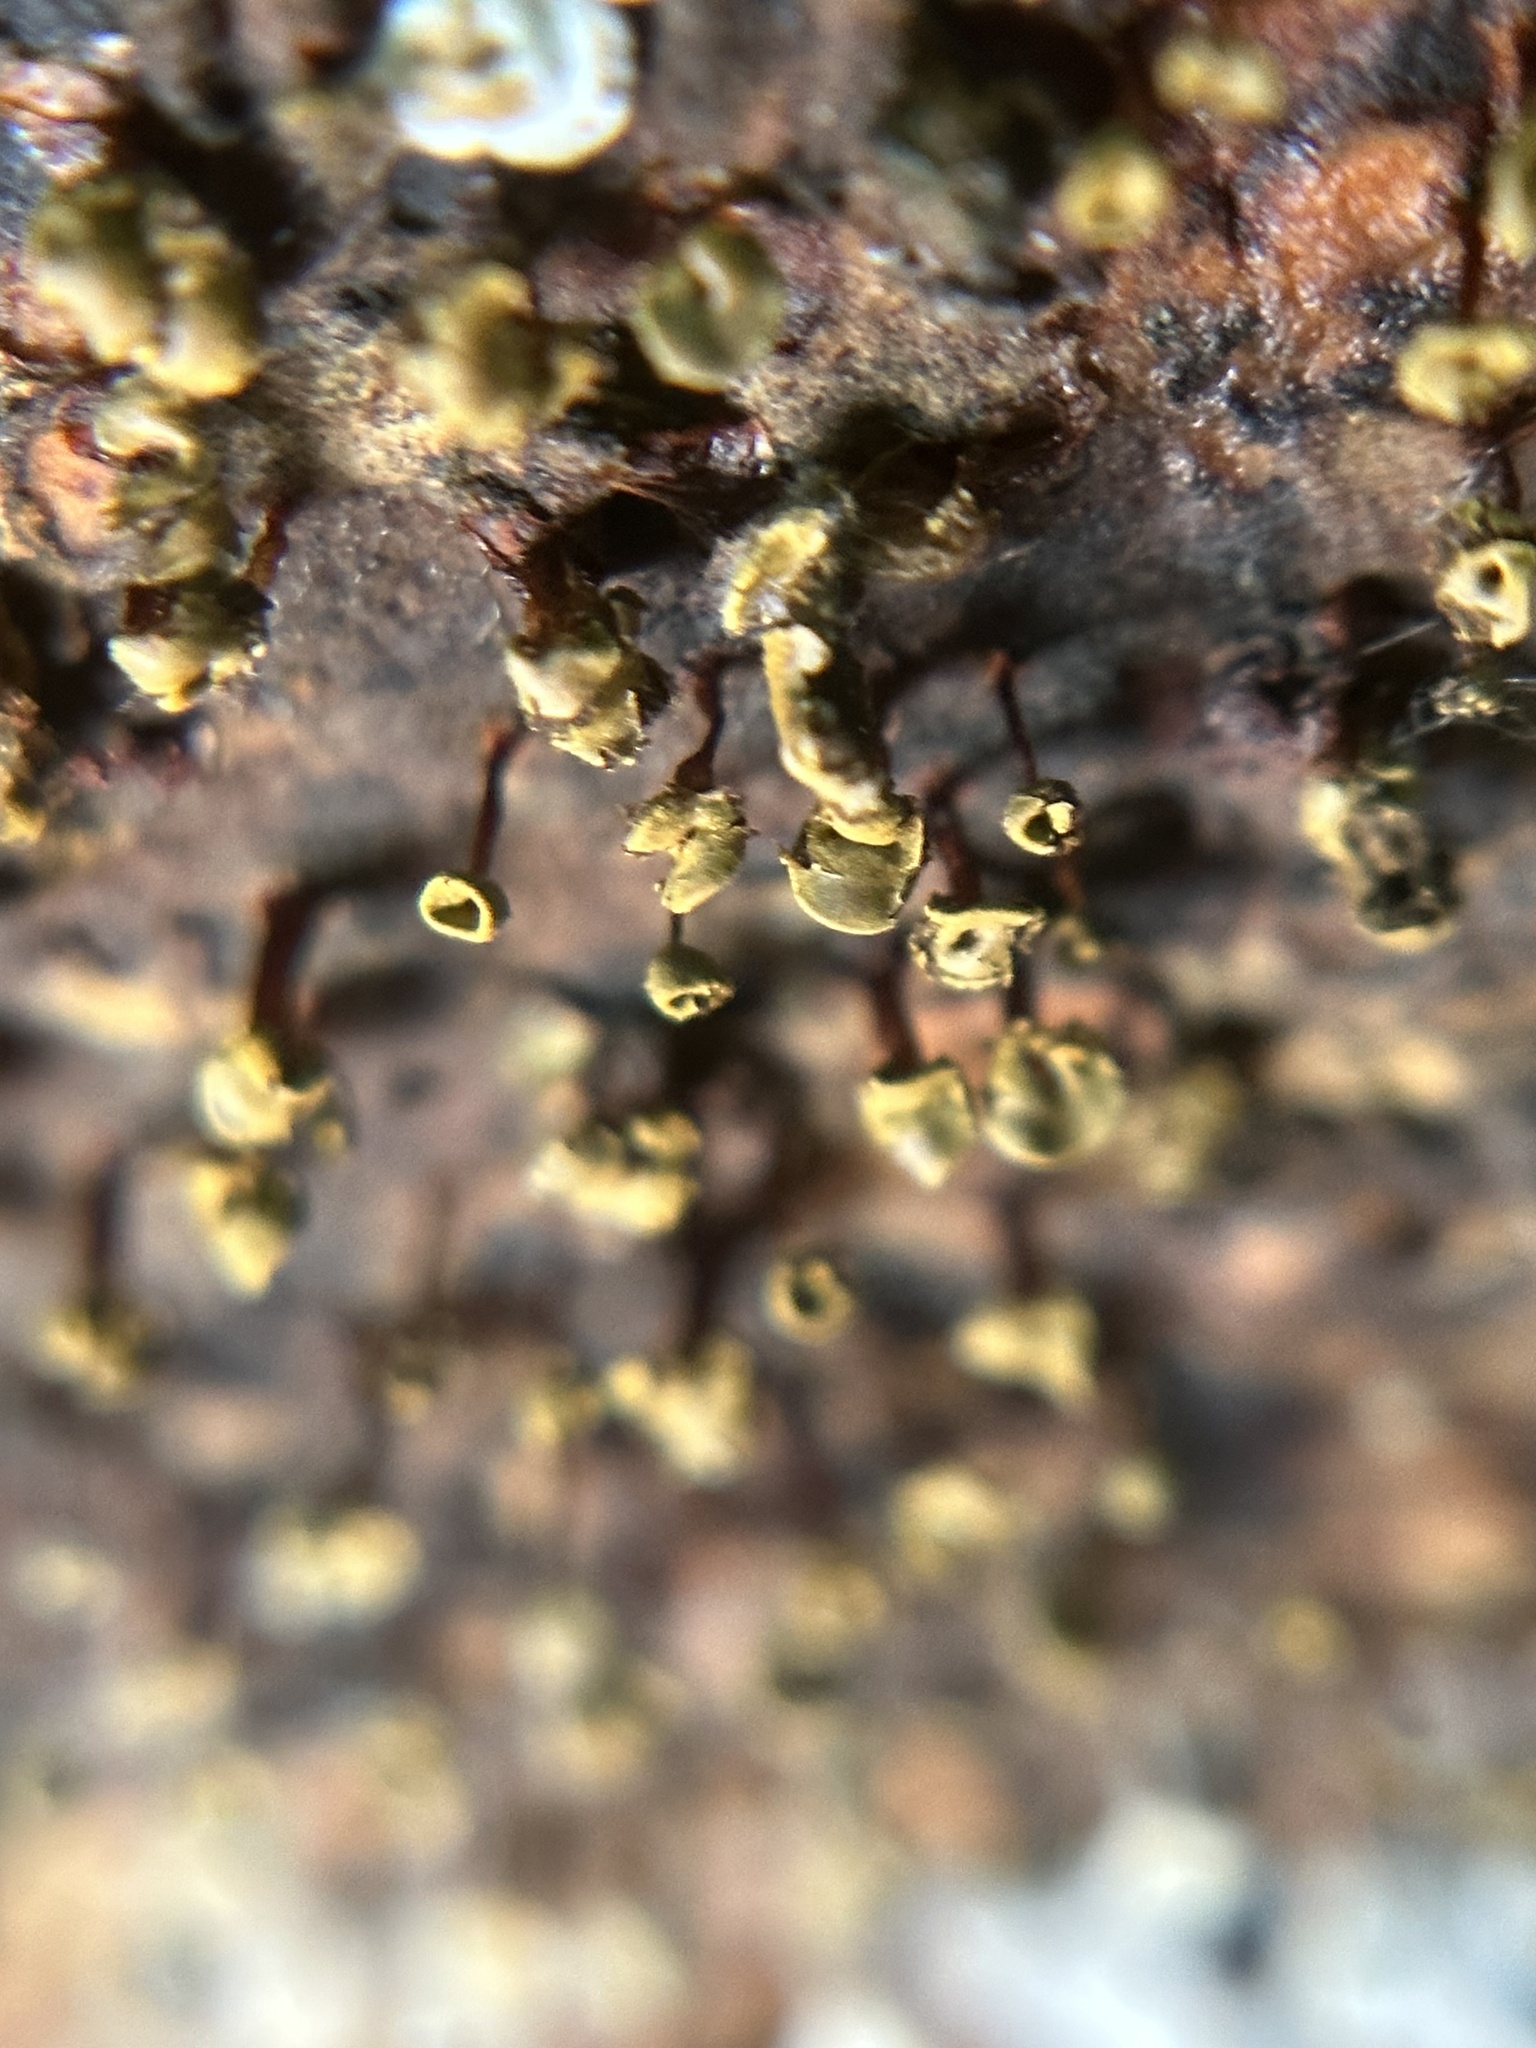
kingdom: Protozoa
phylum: Mycetozoa
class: Myxomycetes
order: Physarales
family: Physaraceae
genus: Physarella
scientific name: Physarella oblonga
